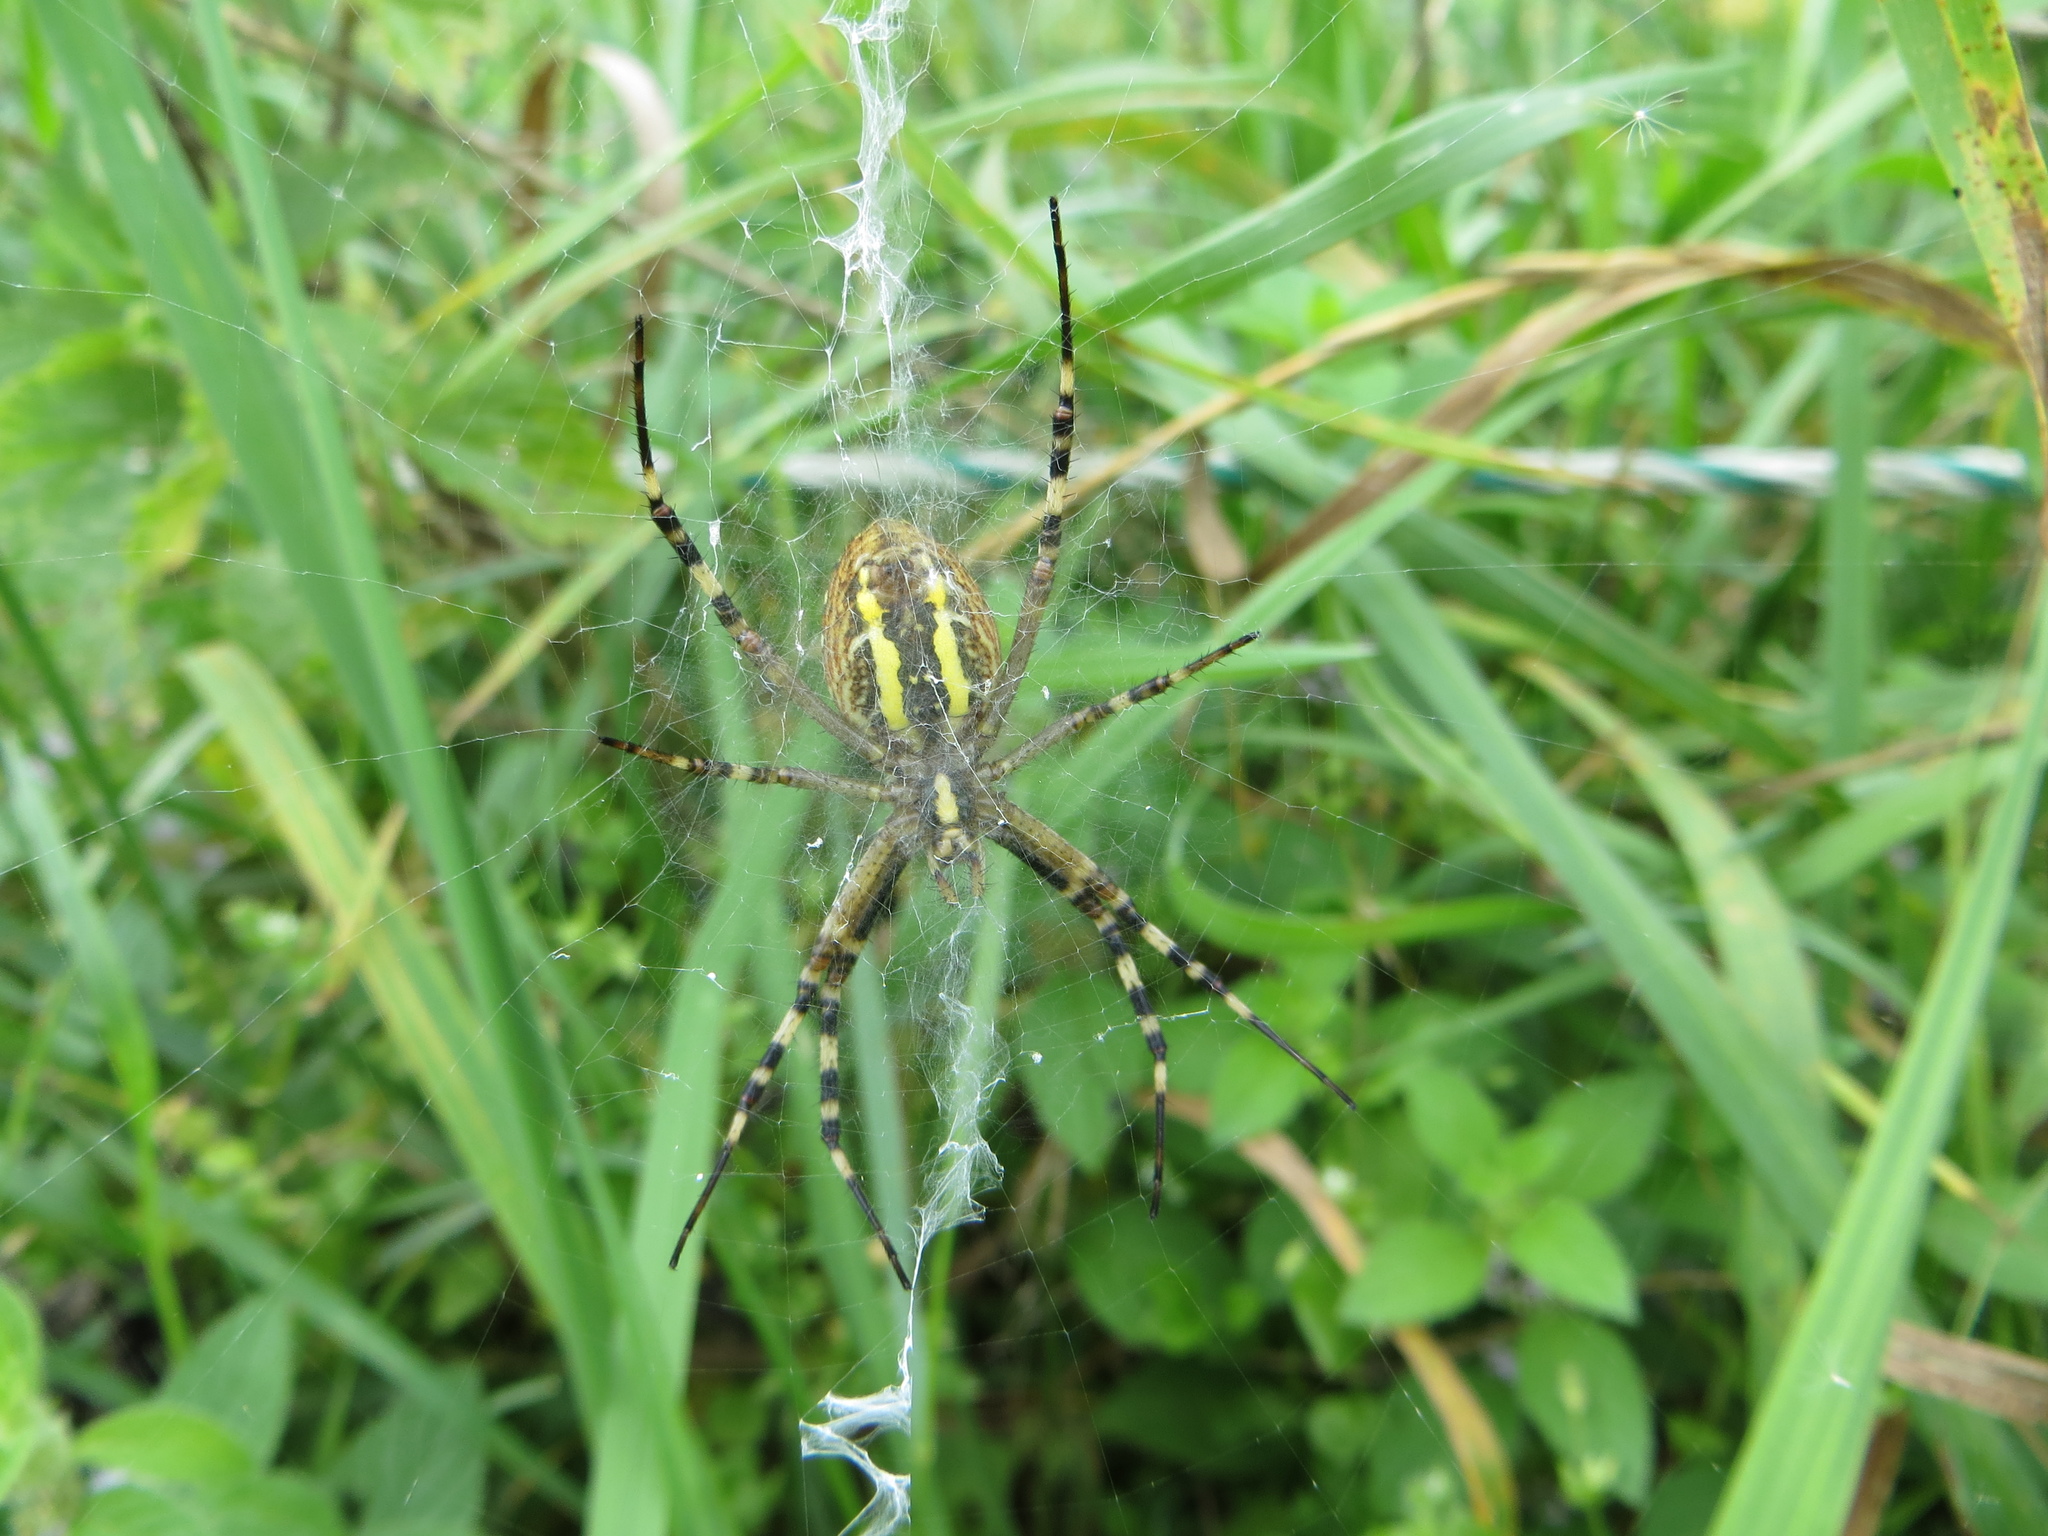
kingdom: Animalia
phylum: Arthropoda
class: Arachnida
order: Araneae
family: Araneidae
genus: Argiope
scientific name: Argiope bruennichi
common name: Wasp spider
